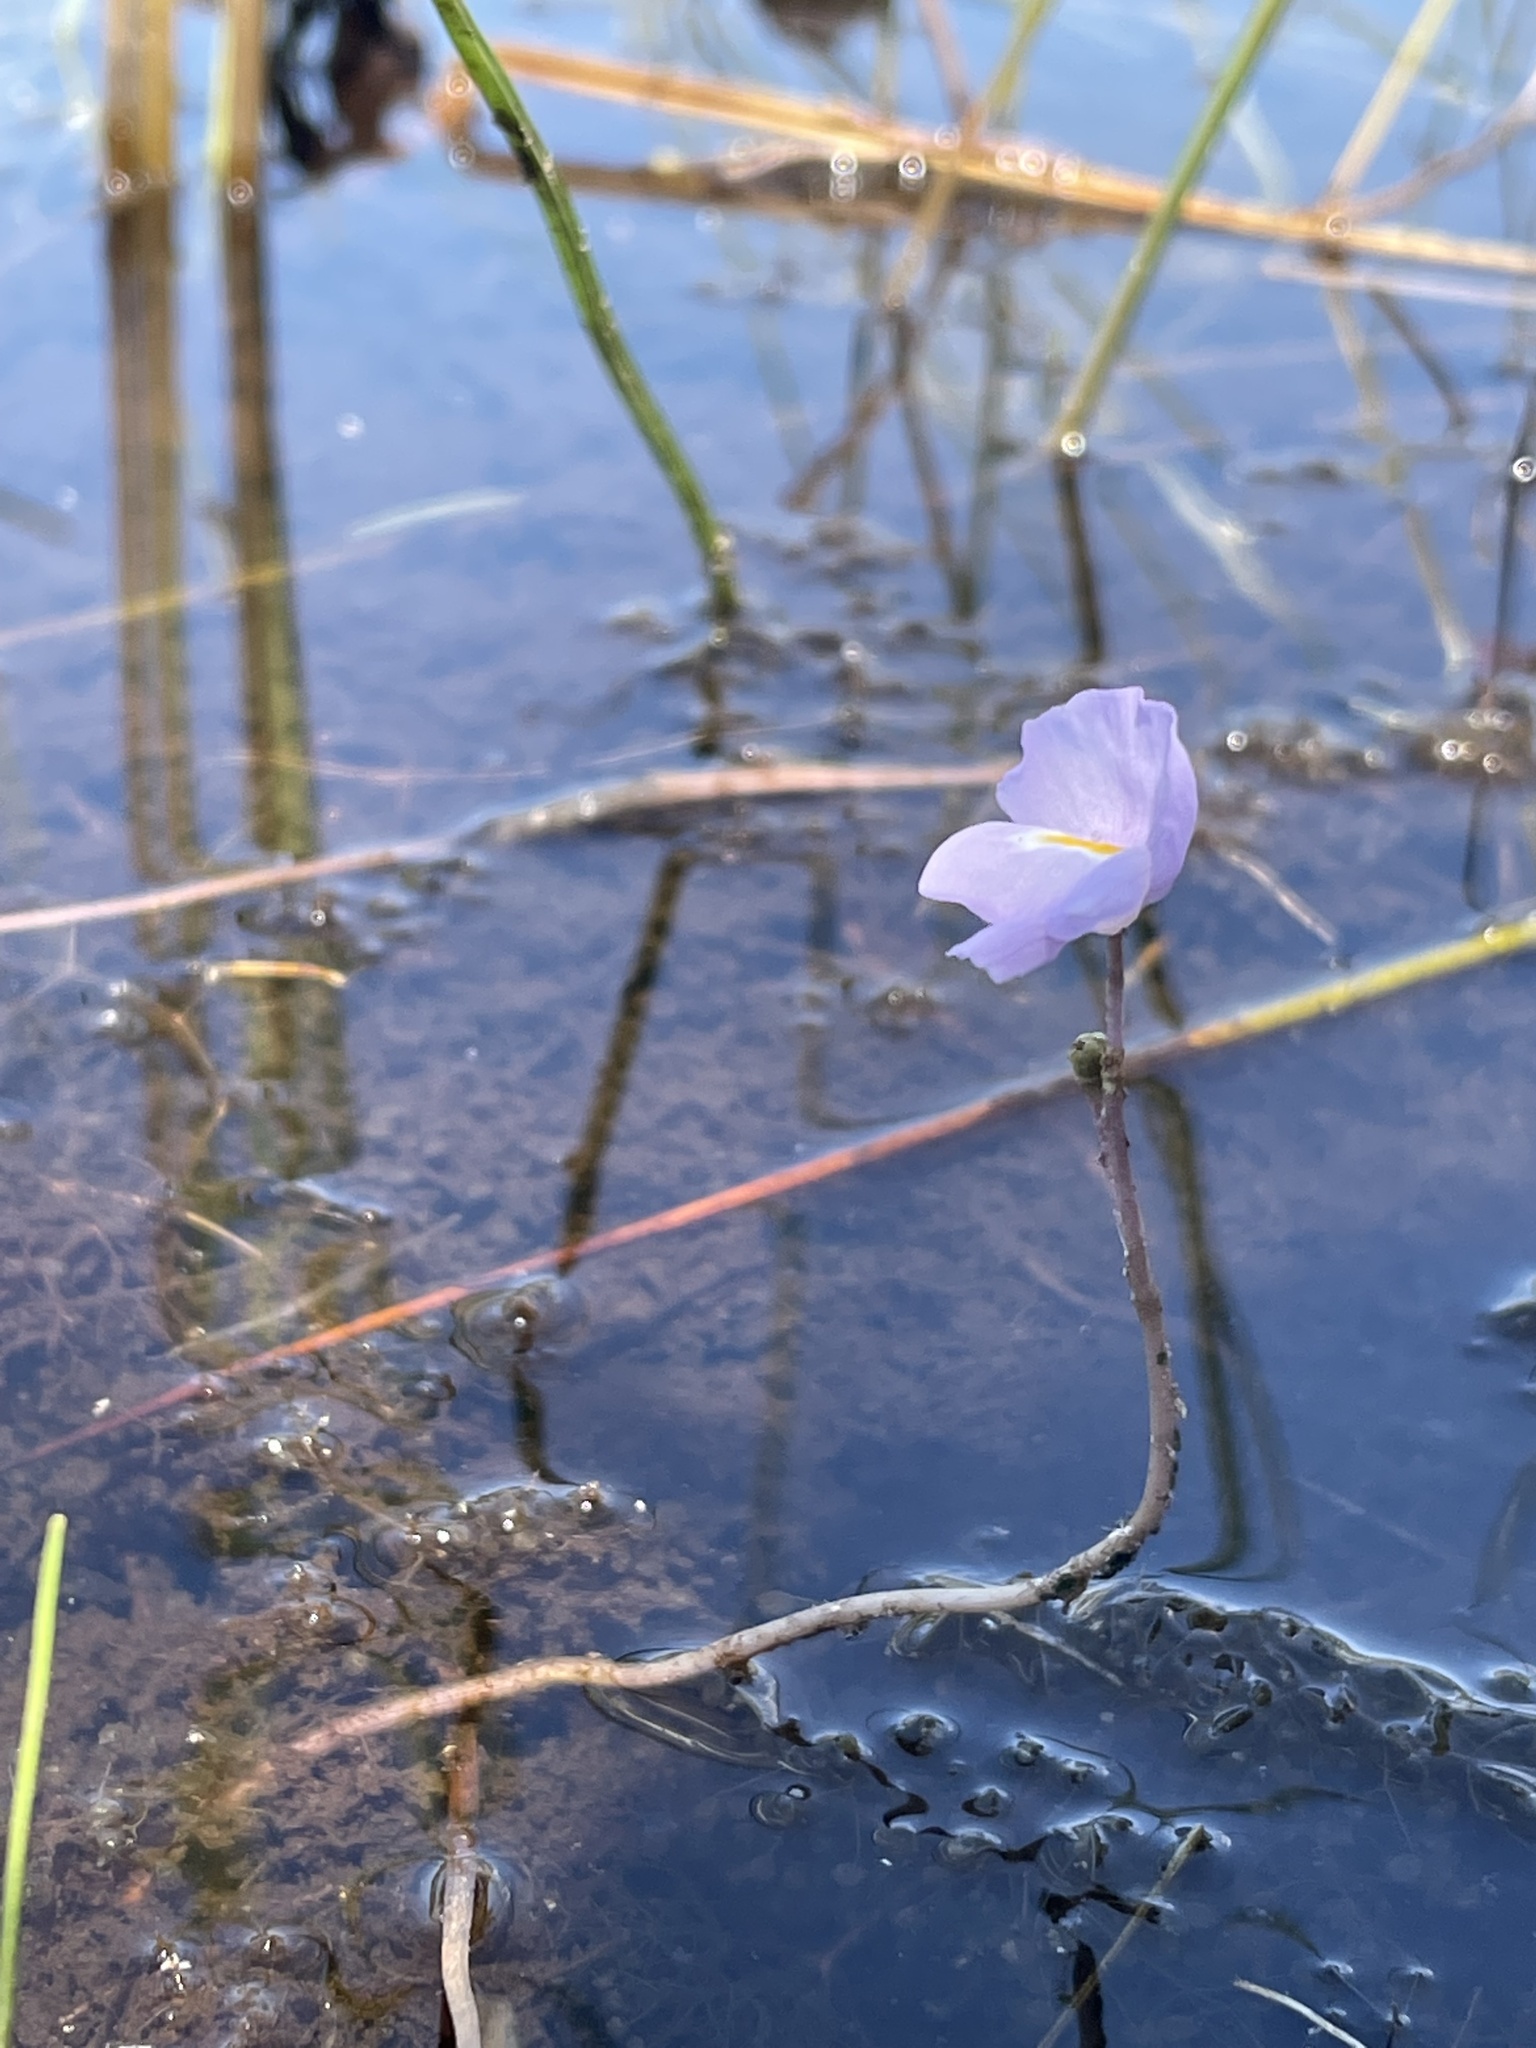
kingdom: Plantae
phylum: Tracheophyta
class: Magnoliopsida
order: Lamiales
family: Lentibulariaceae
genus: Utricularia
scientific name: Utricularia purpurea
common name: Eastern purple bladderwort
